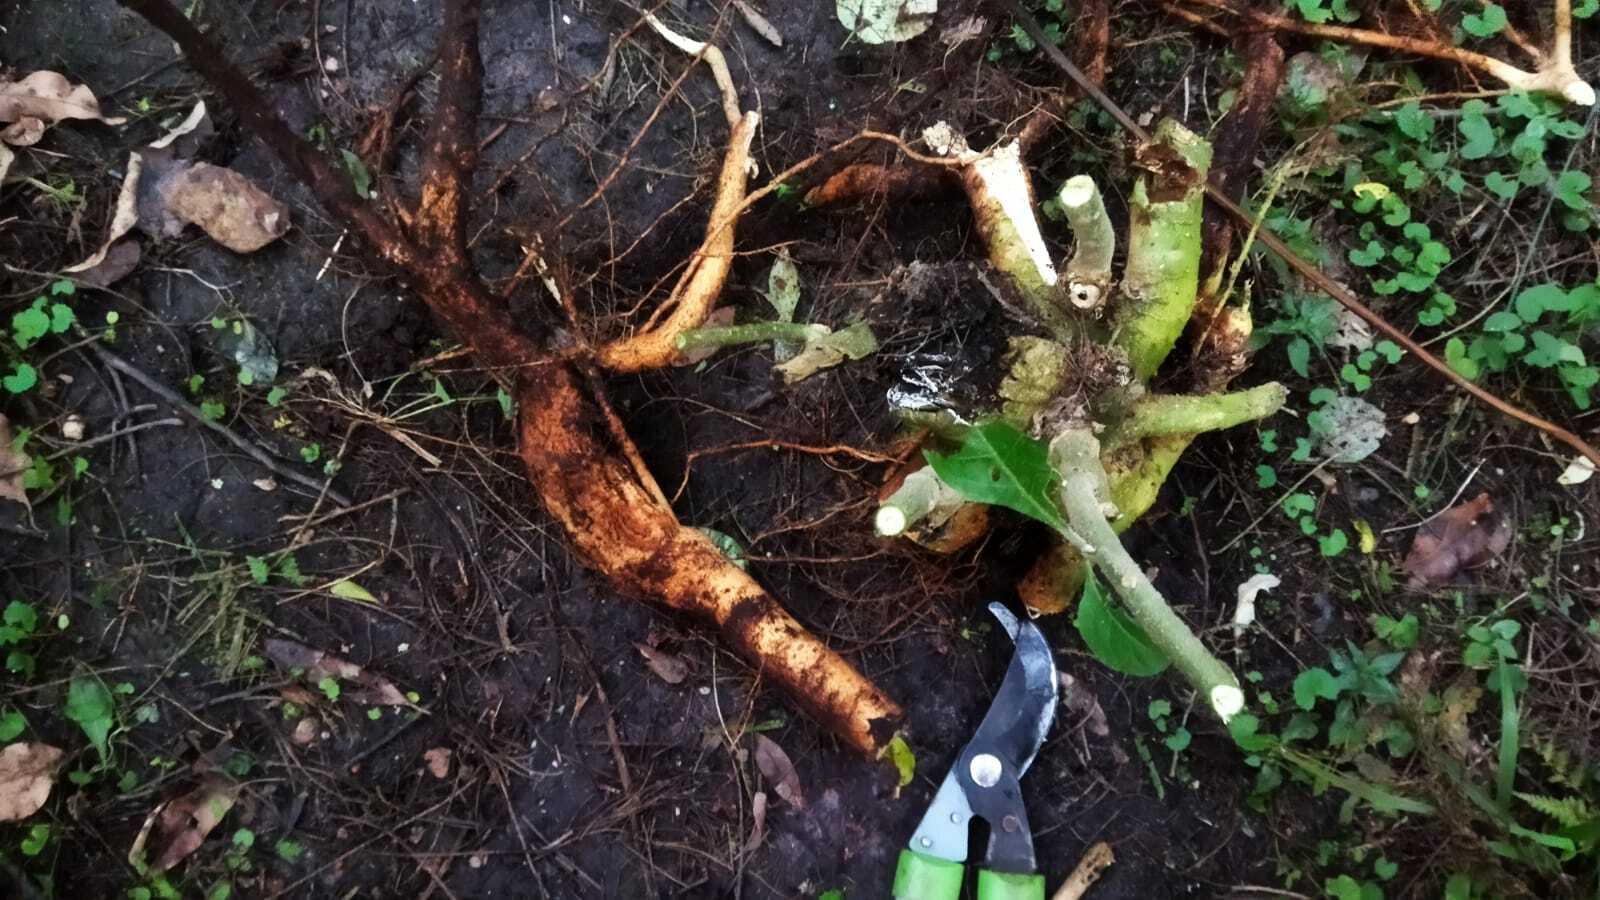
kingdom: Plantae
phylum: Tracheophyta
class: Magnoliopsida
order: Solanales
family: Solanaceae
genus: Solanum
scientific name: Solanum mauritianum
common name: Earleaf nightshade
